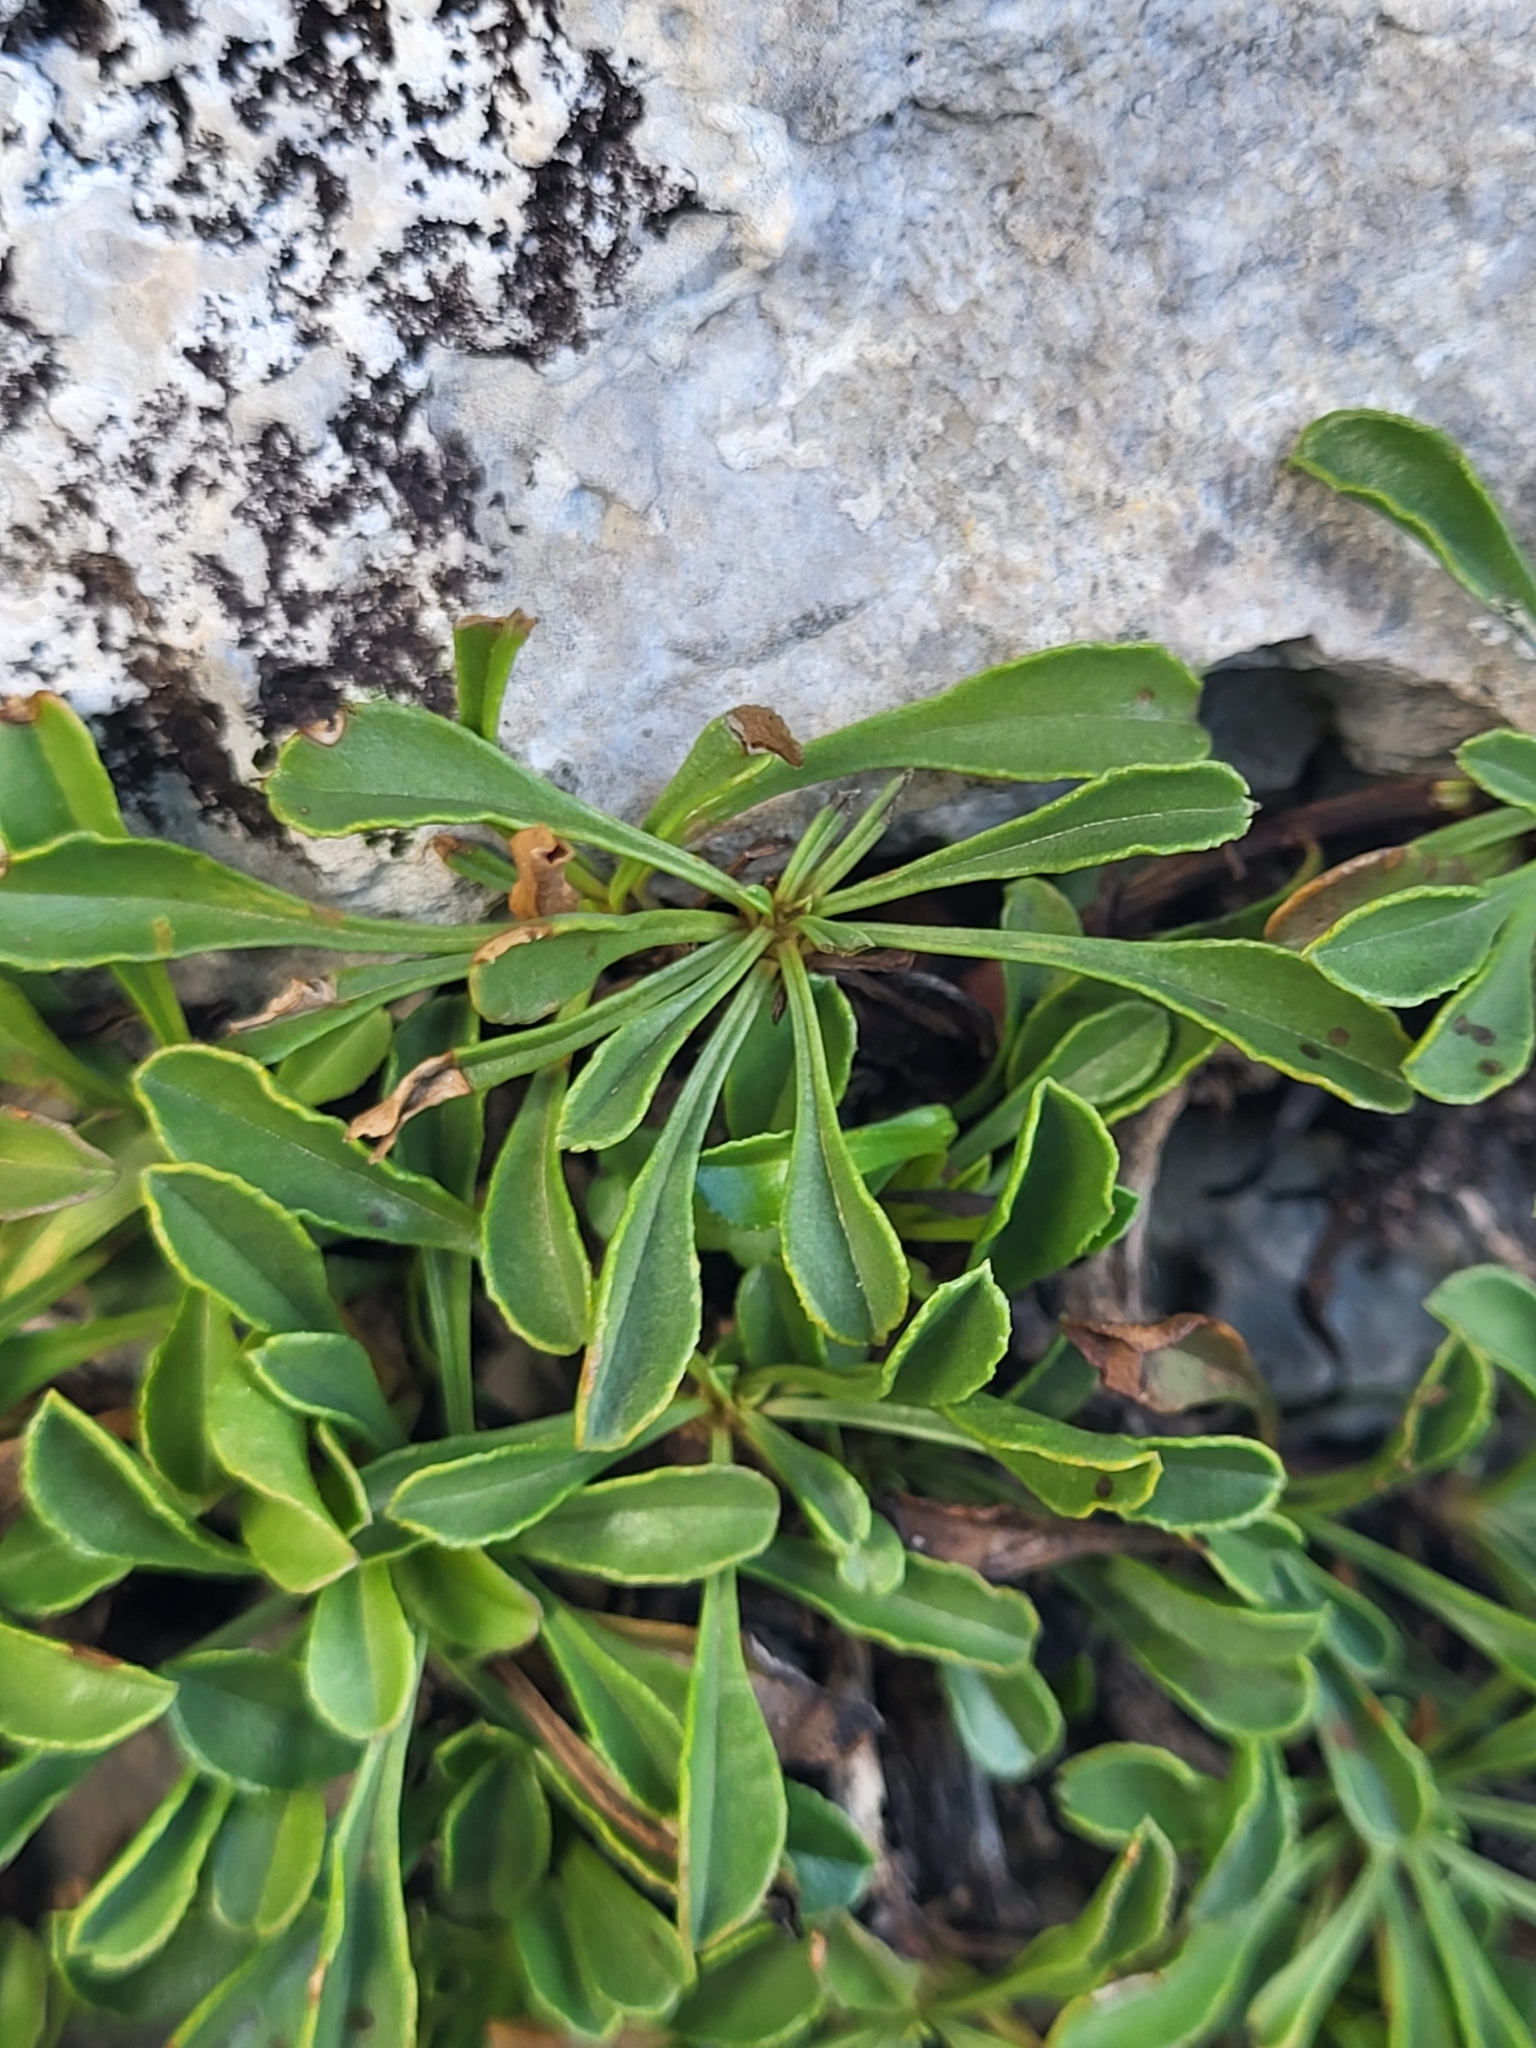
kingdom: Plantae
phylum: Tracheophyta
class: Magnoliopsida
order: Lamiales
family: Plantaginaceae
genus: Globularia
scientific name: Globularia cordifolia
